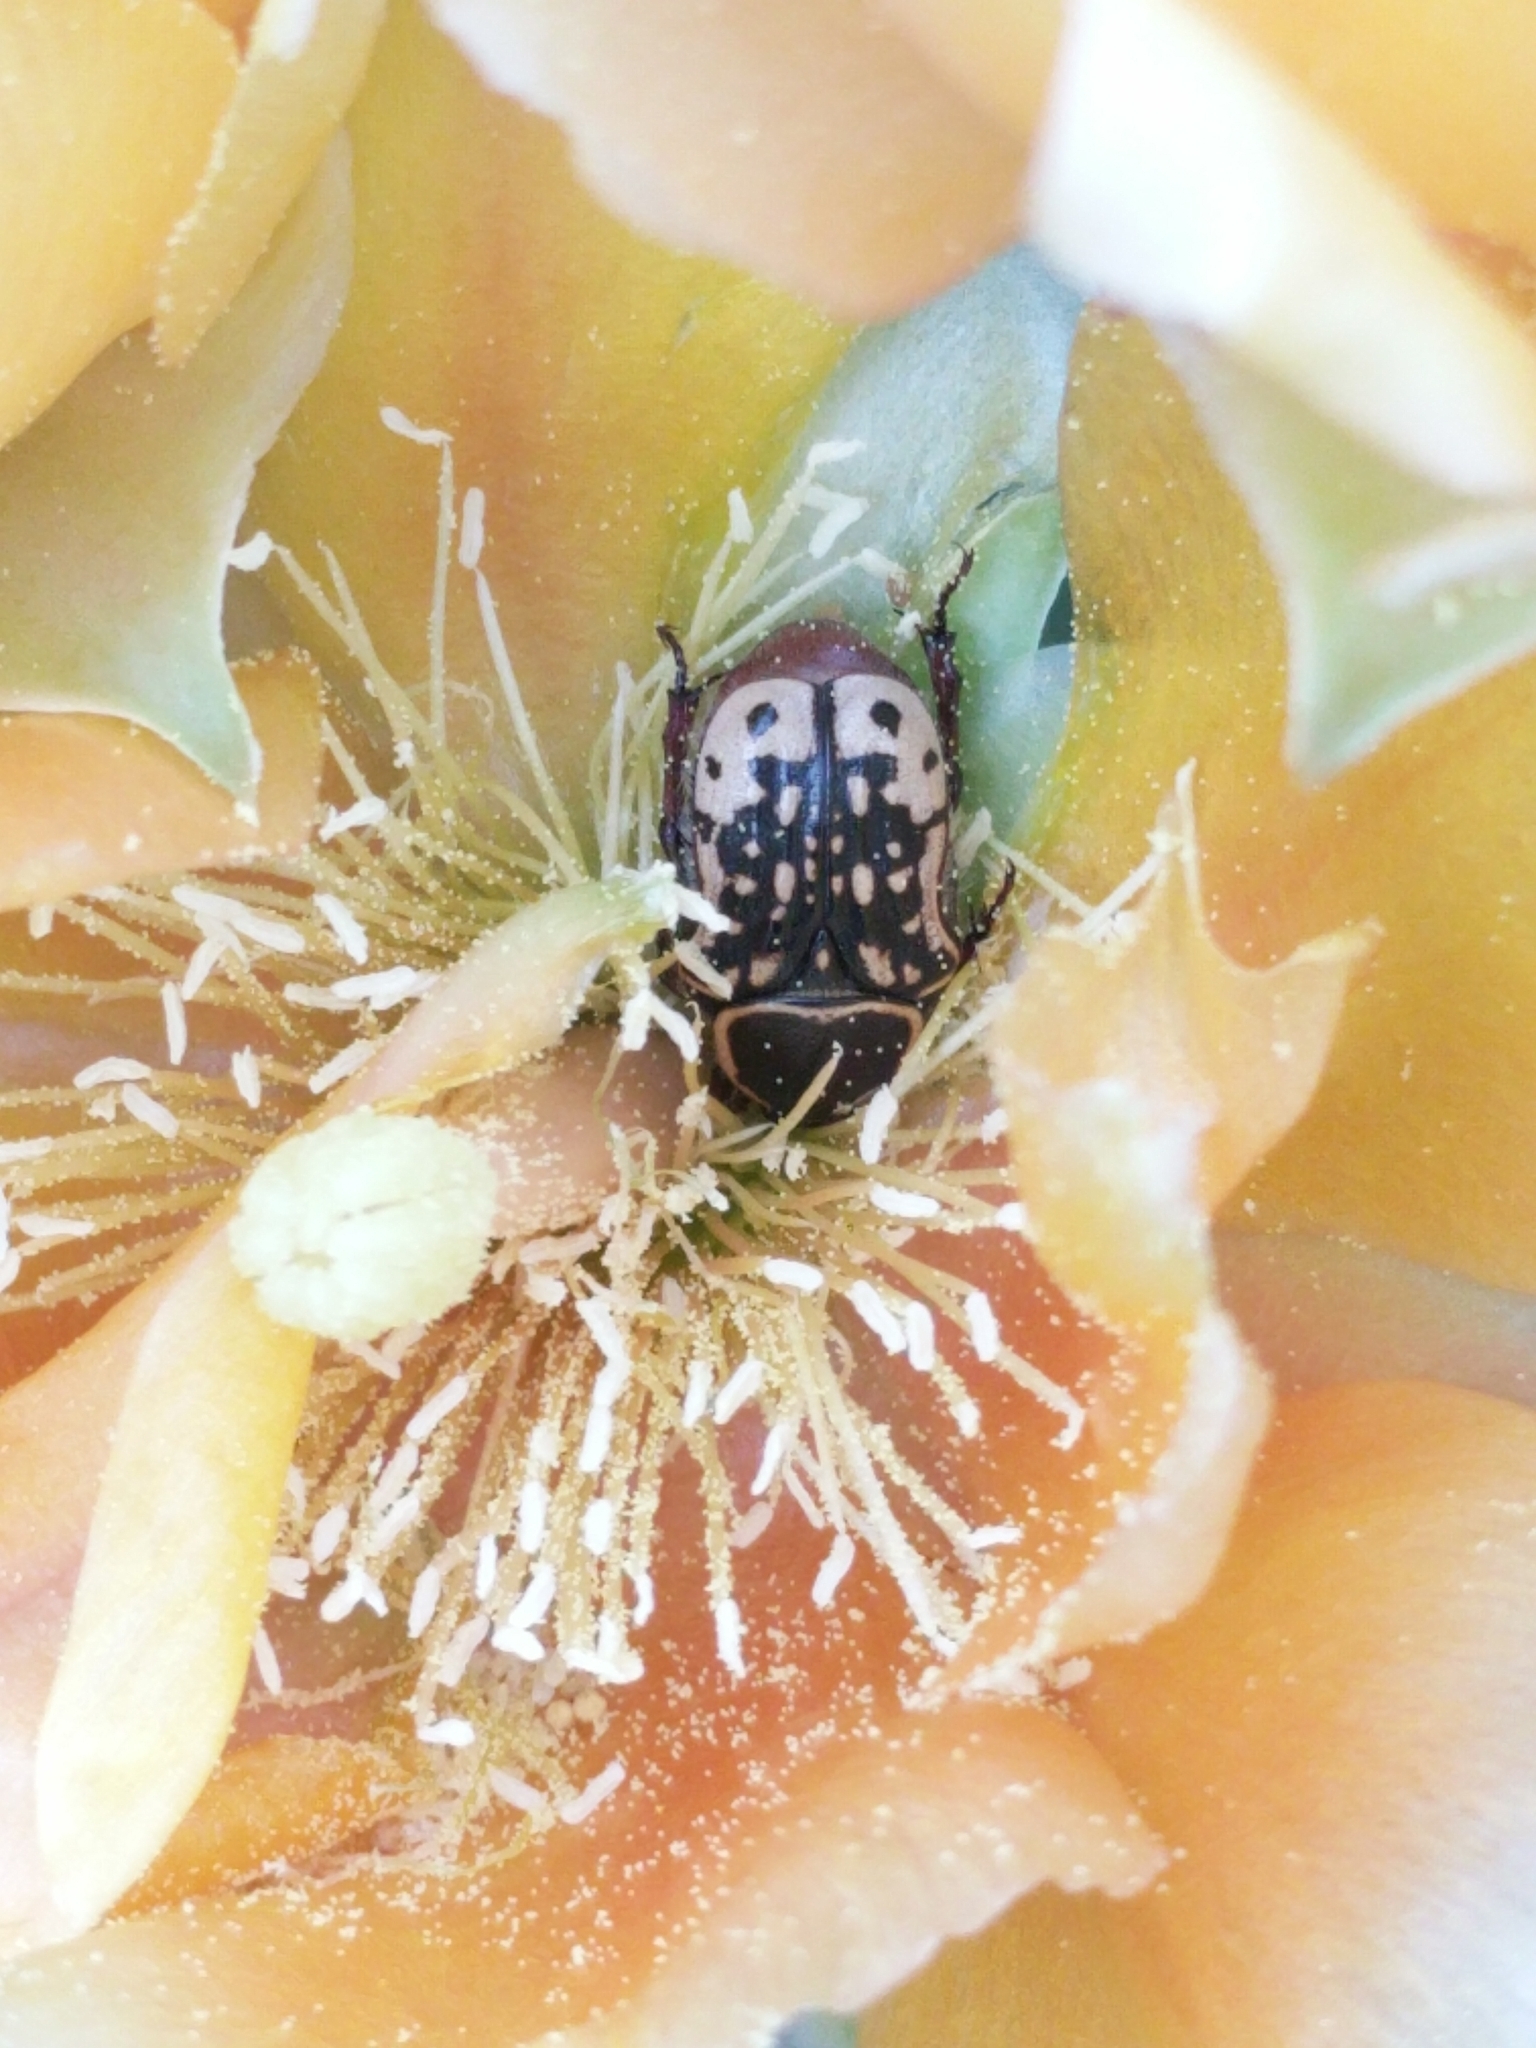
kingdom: Animalia
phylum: Arthropoda
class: Insecta
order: Coleoptera
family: Scarabaeidae
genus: Euphoria
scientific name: Euphoria kernii
